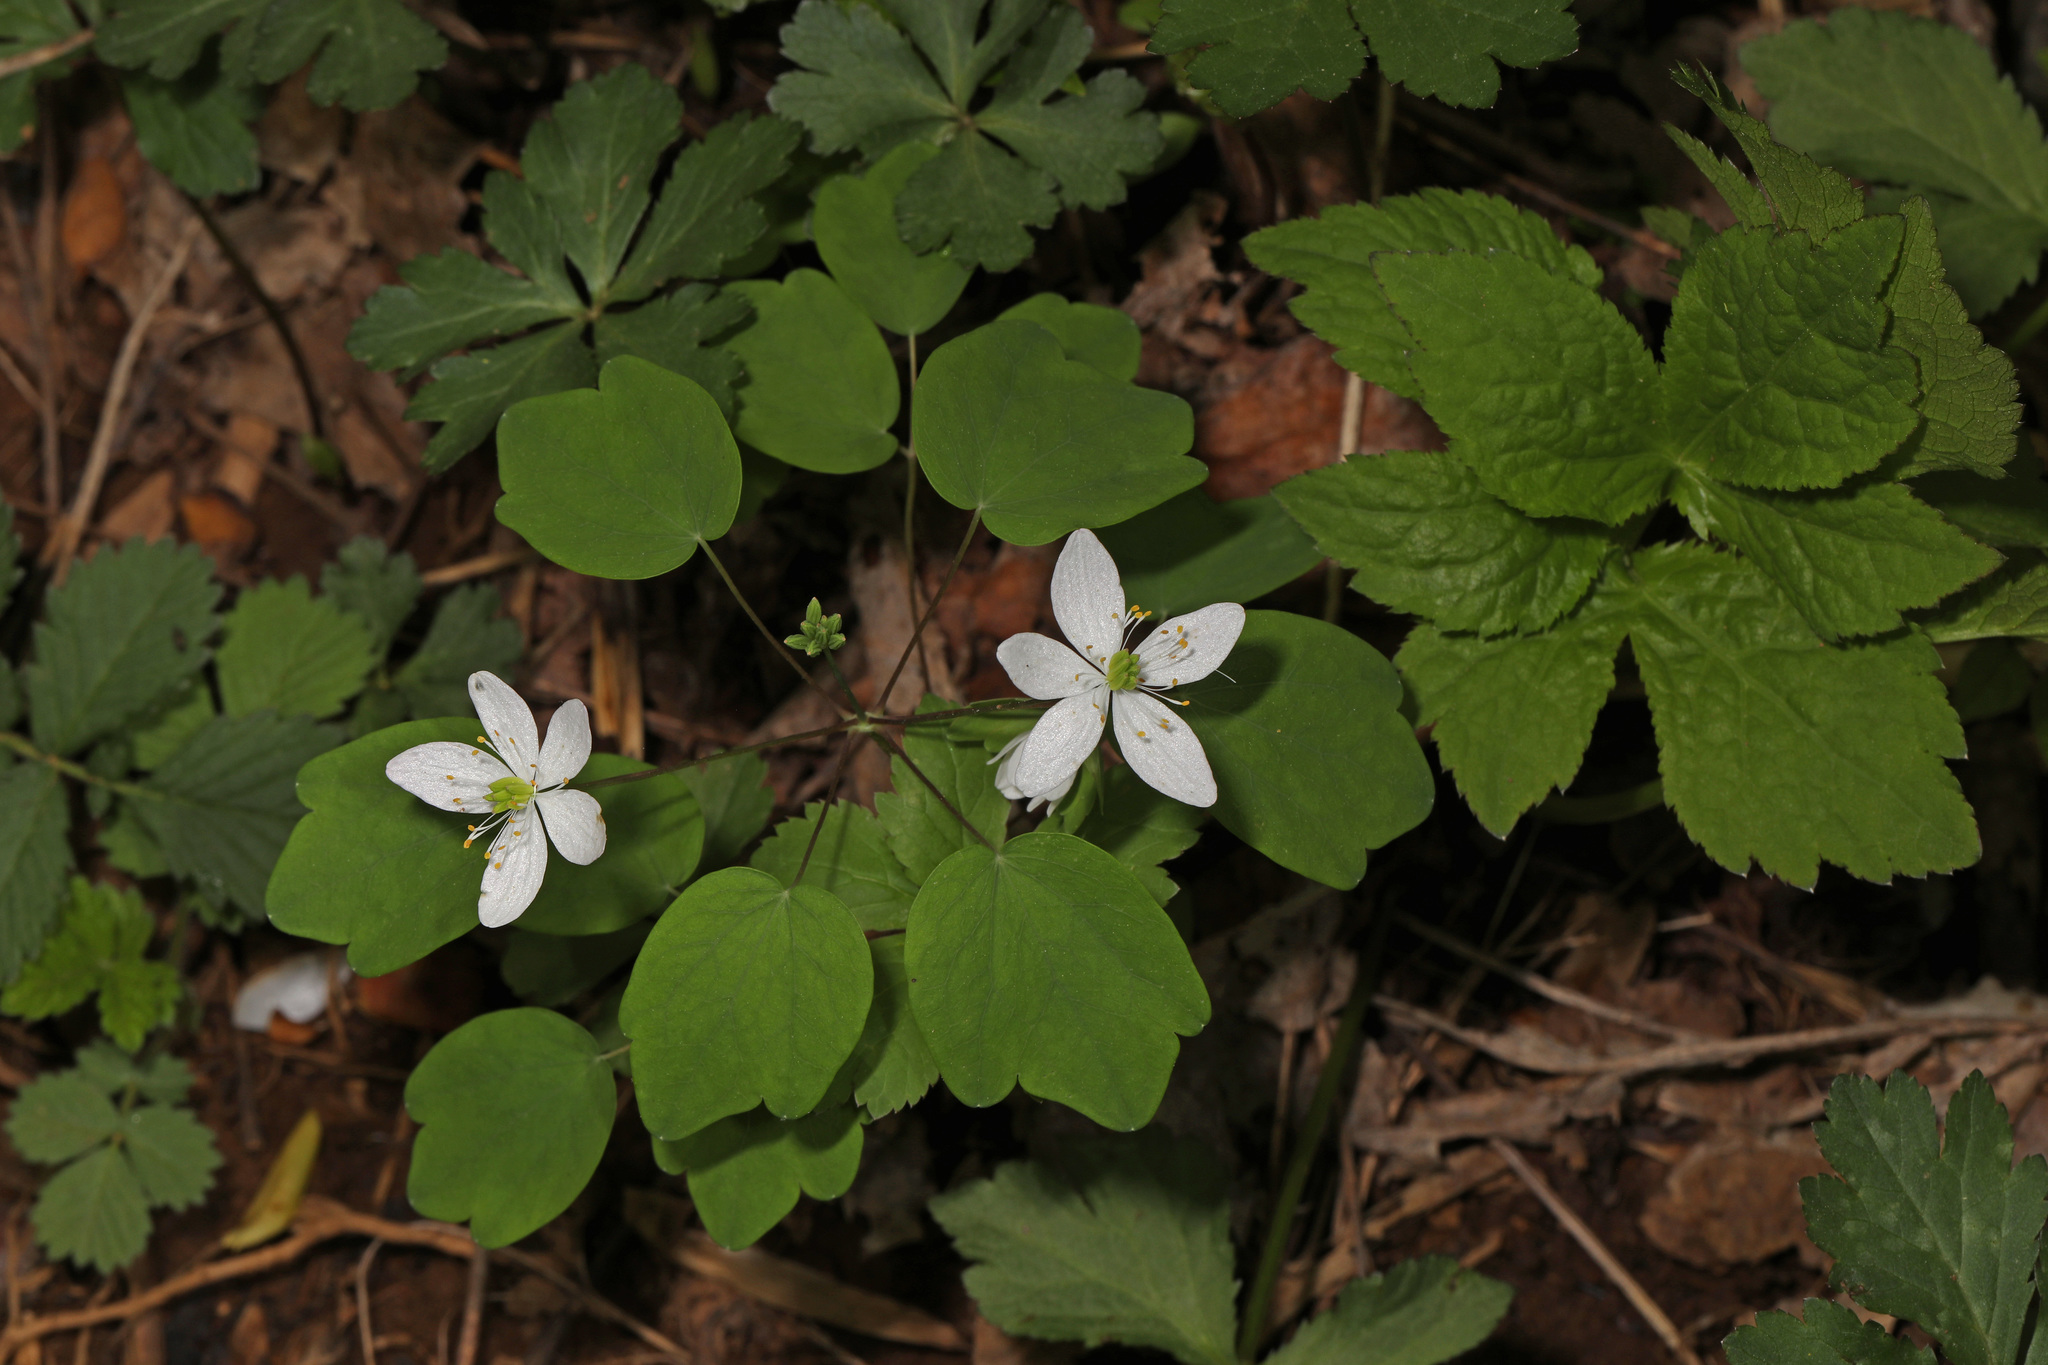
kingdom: Plantae
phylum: Tracheophyta
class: Magnoliopsida
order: Ranunculales
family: Ranunculaceae
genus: Thalictrum
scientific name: Thalictrum thalictroides
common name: Rue-anemone
